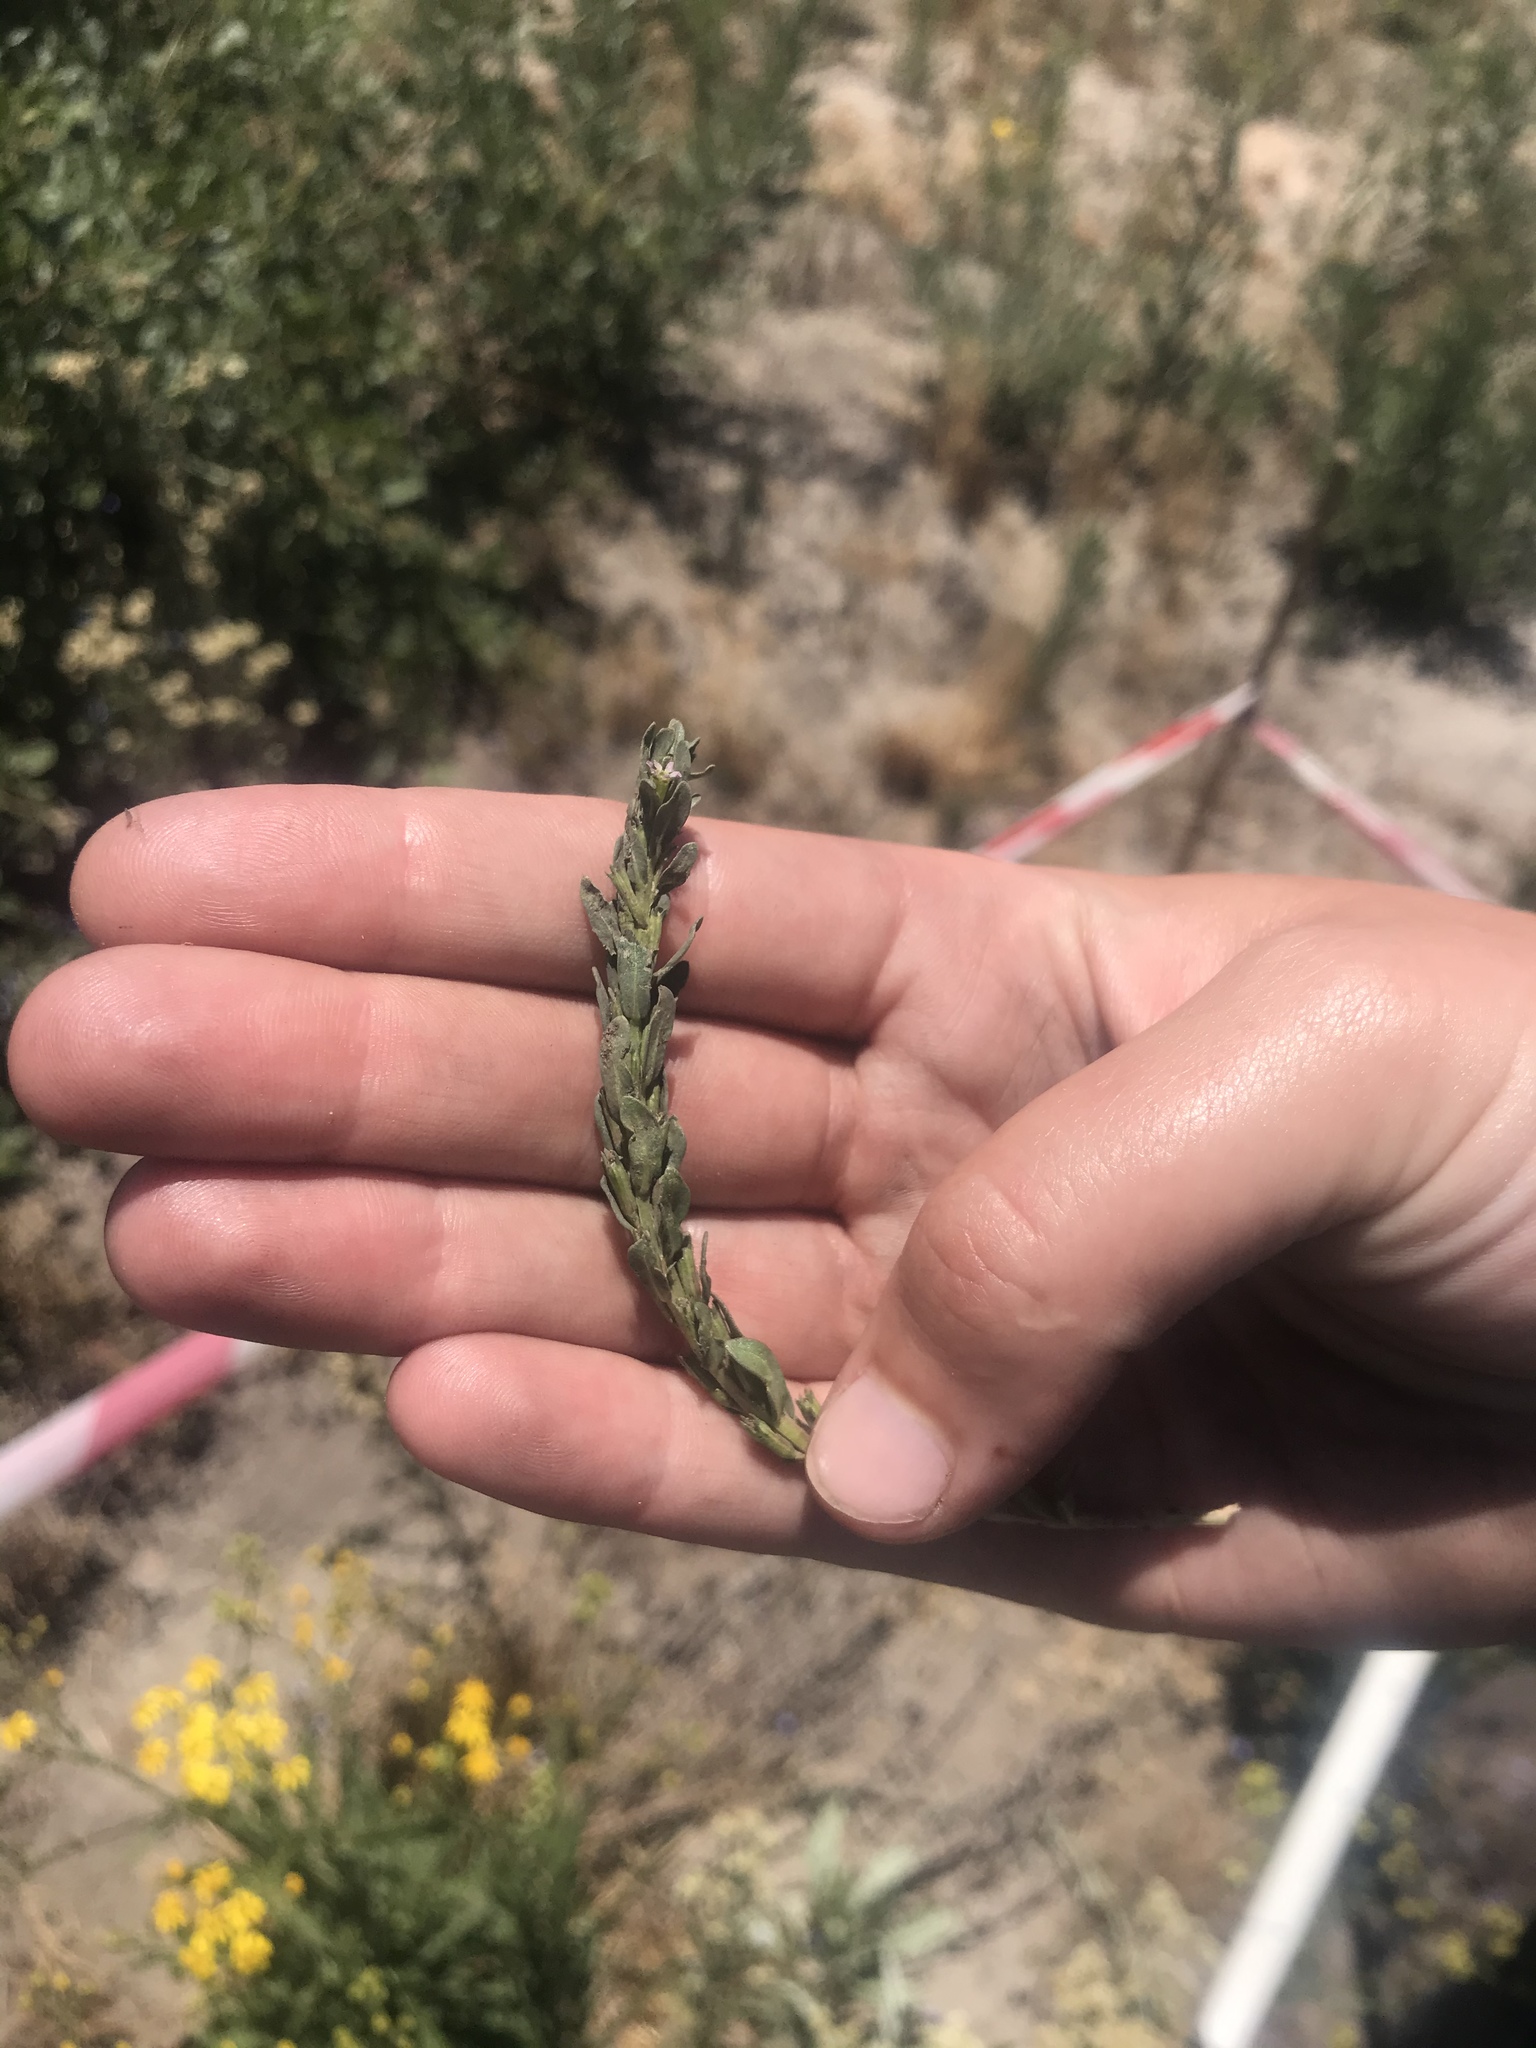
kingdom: Plantae
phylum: Tracheophyta
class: Magnoliopsida
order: Myrtales
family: Lythraceae
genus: Lythrum
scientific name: Lythrum hyssopifolia
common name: Grass-poly
